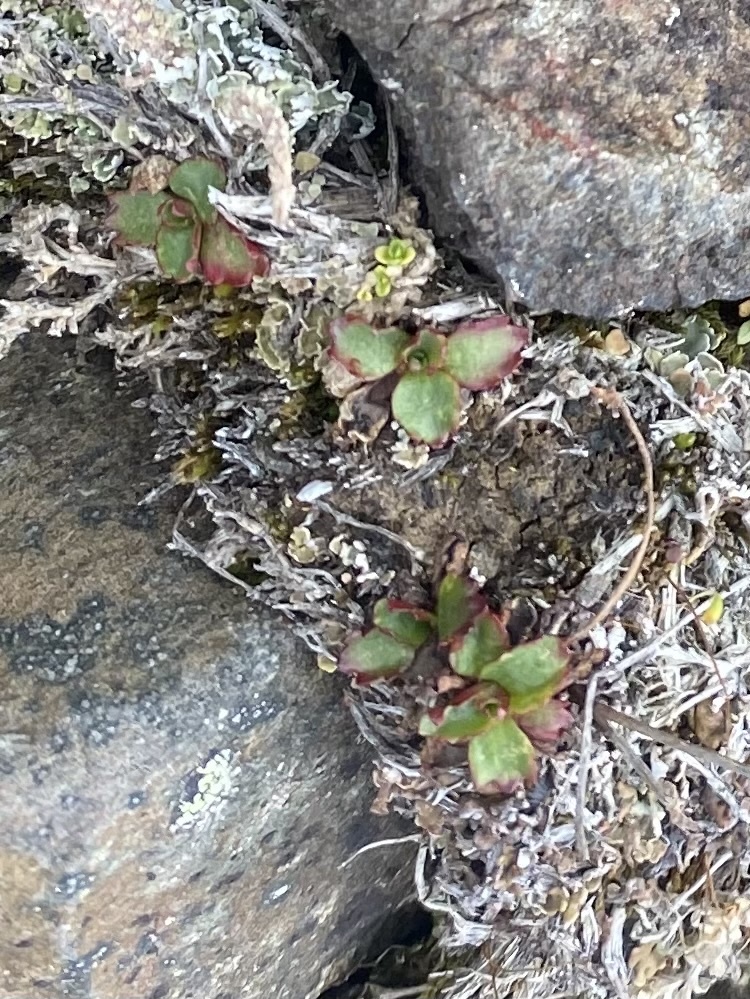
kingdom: Plantae
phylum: Tracheophyta
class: Magnoliopsida
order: Saxifragales
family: Saxifragaceae
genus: Micranthes
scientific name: Micranthes nivalis
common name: Alpine saxifrage
